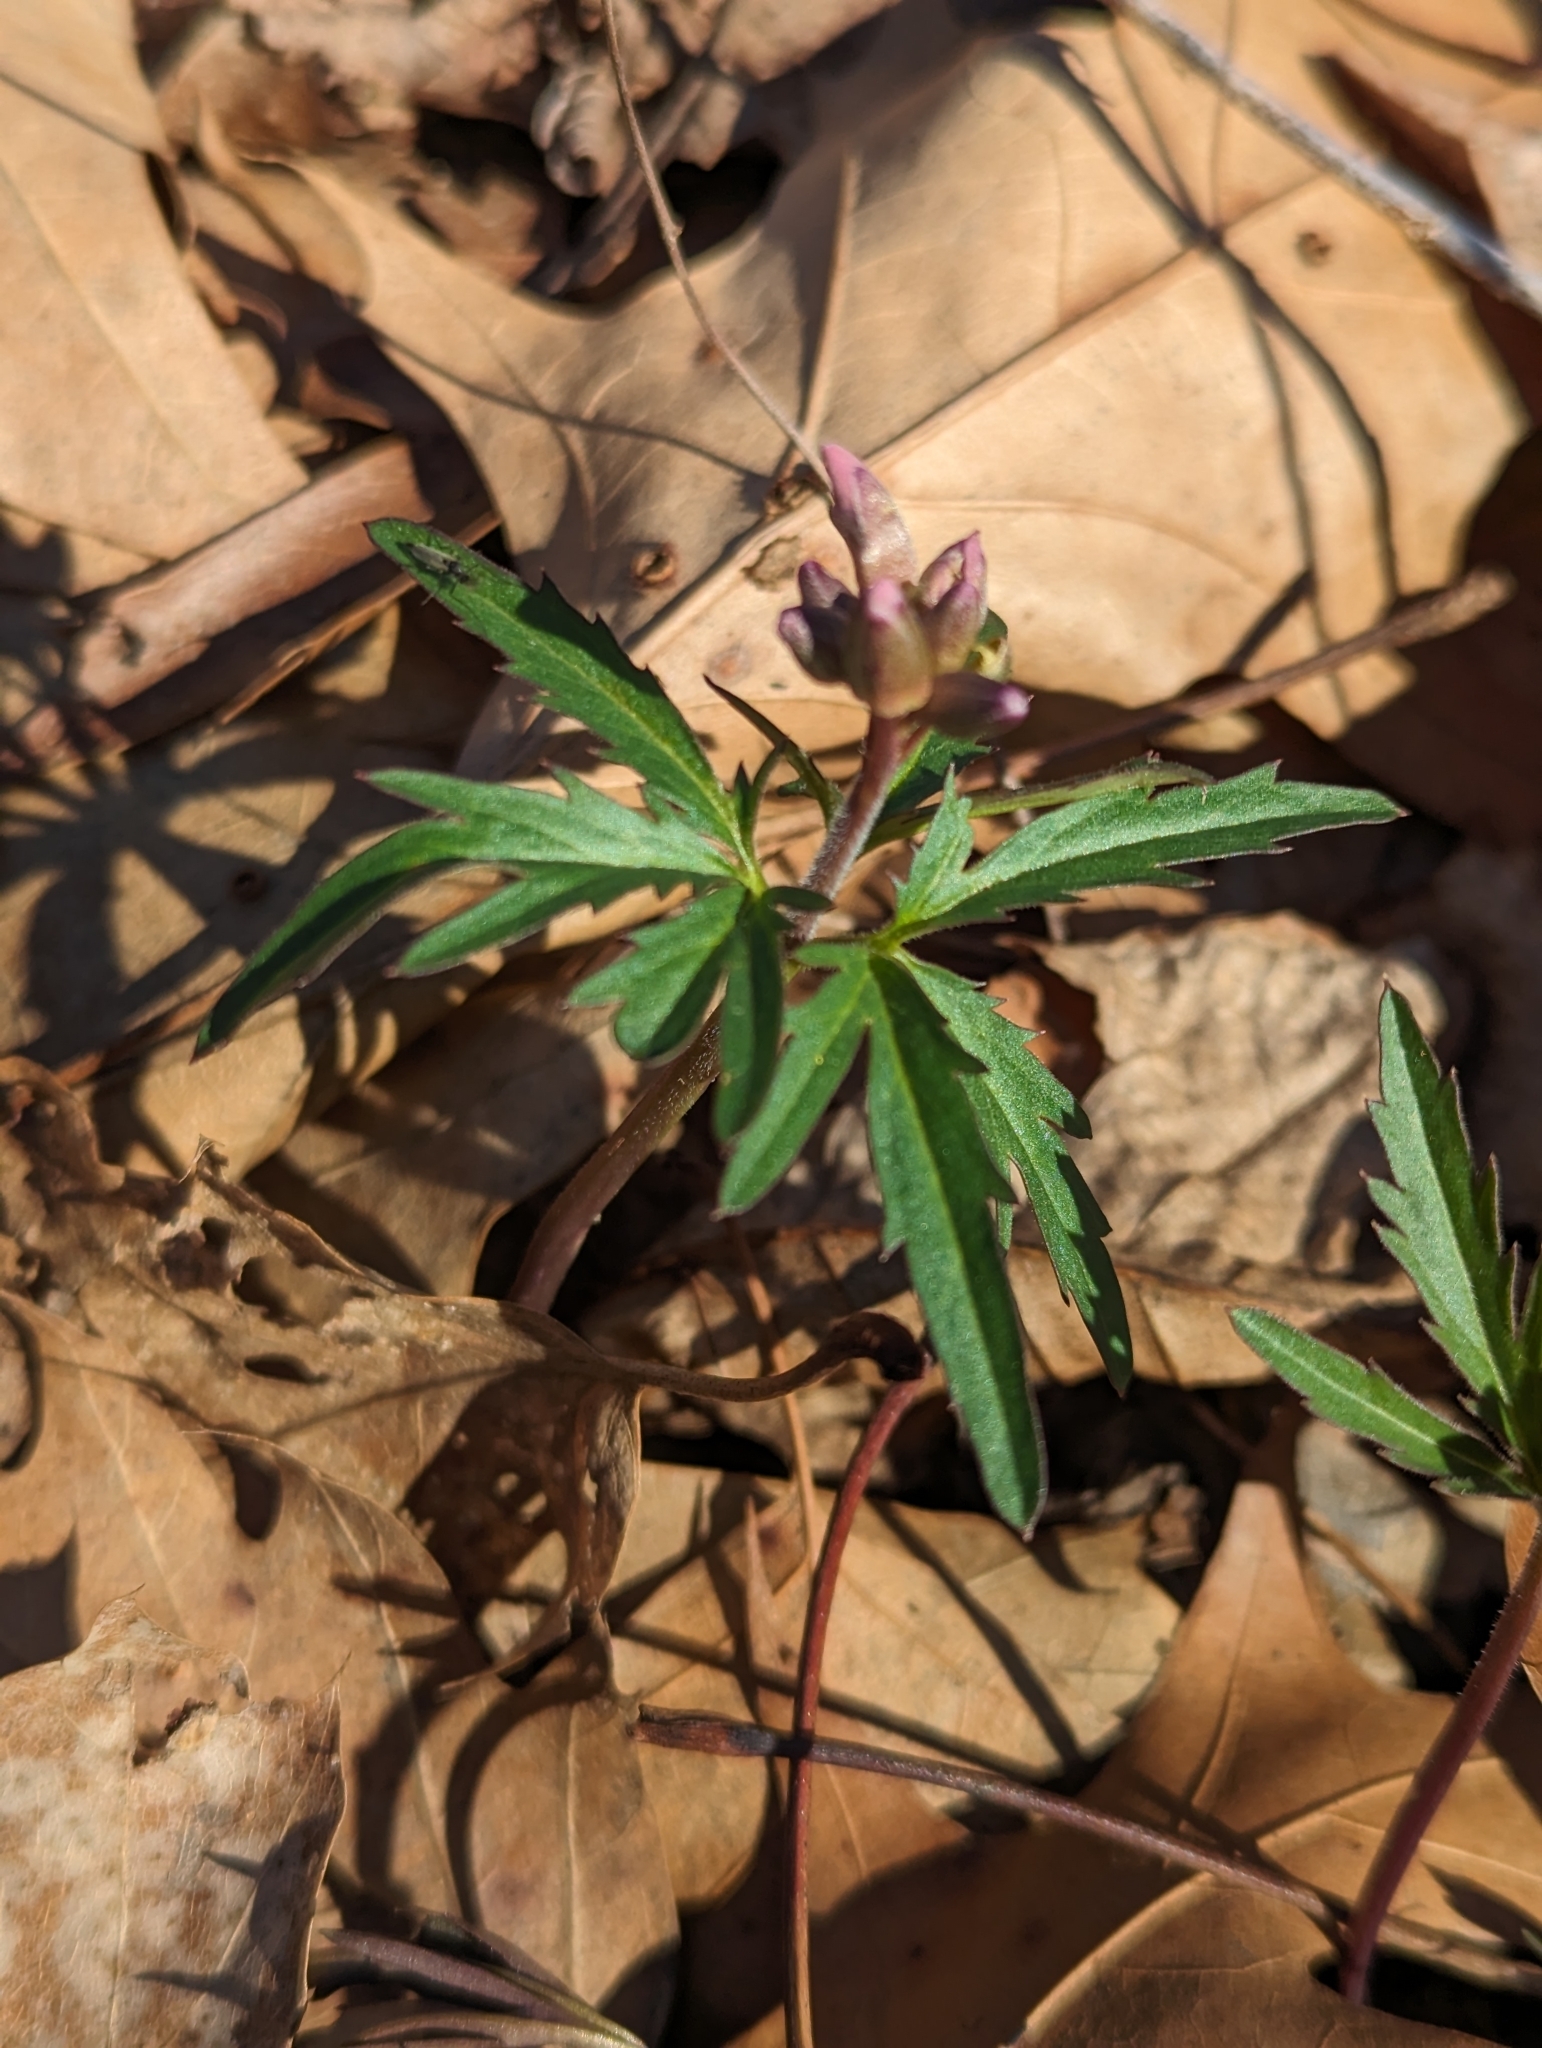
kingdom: Plantae
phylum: Tracheophyta
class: Magnoliopsida
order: Brassicales
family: Brassicaceae
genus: Cardamine
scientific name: Cardamine concatenata
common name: Cut-leaf toothcup
